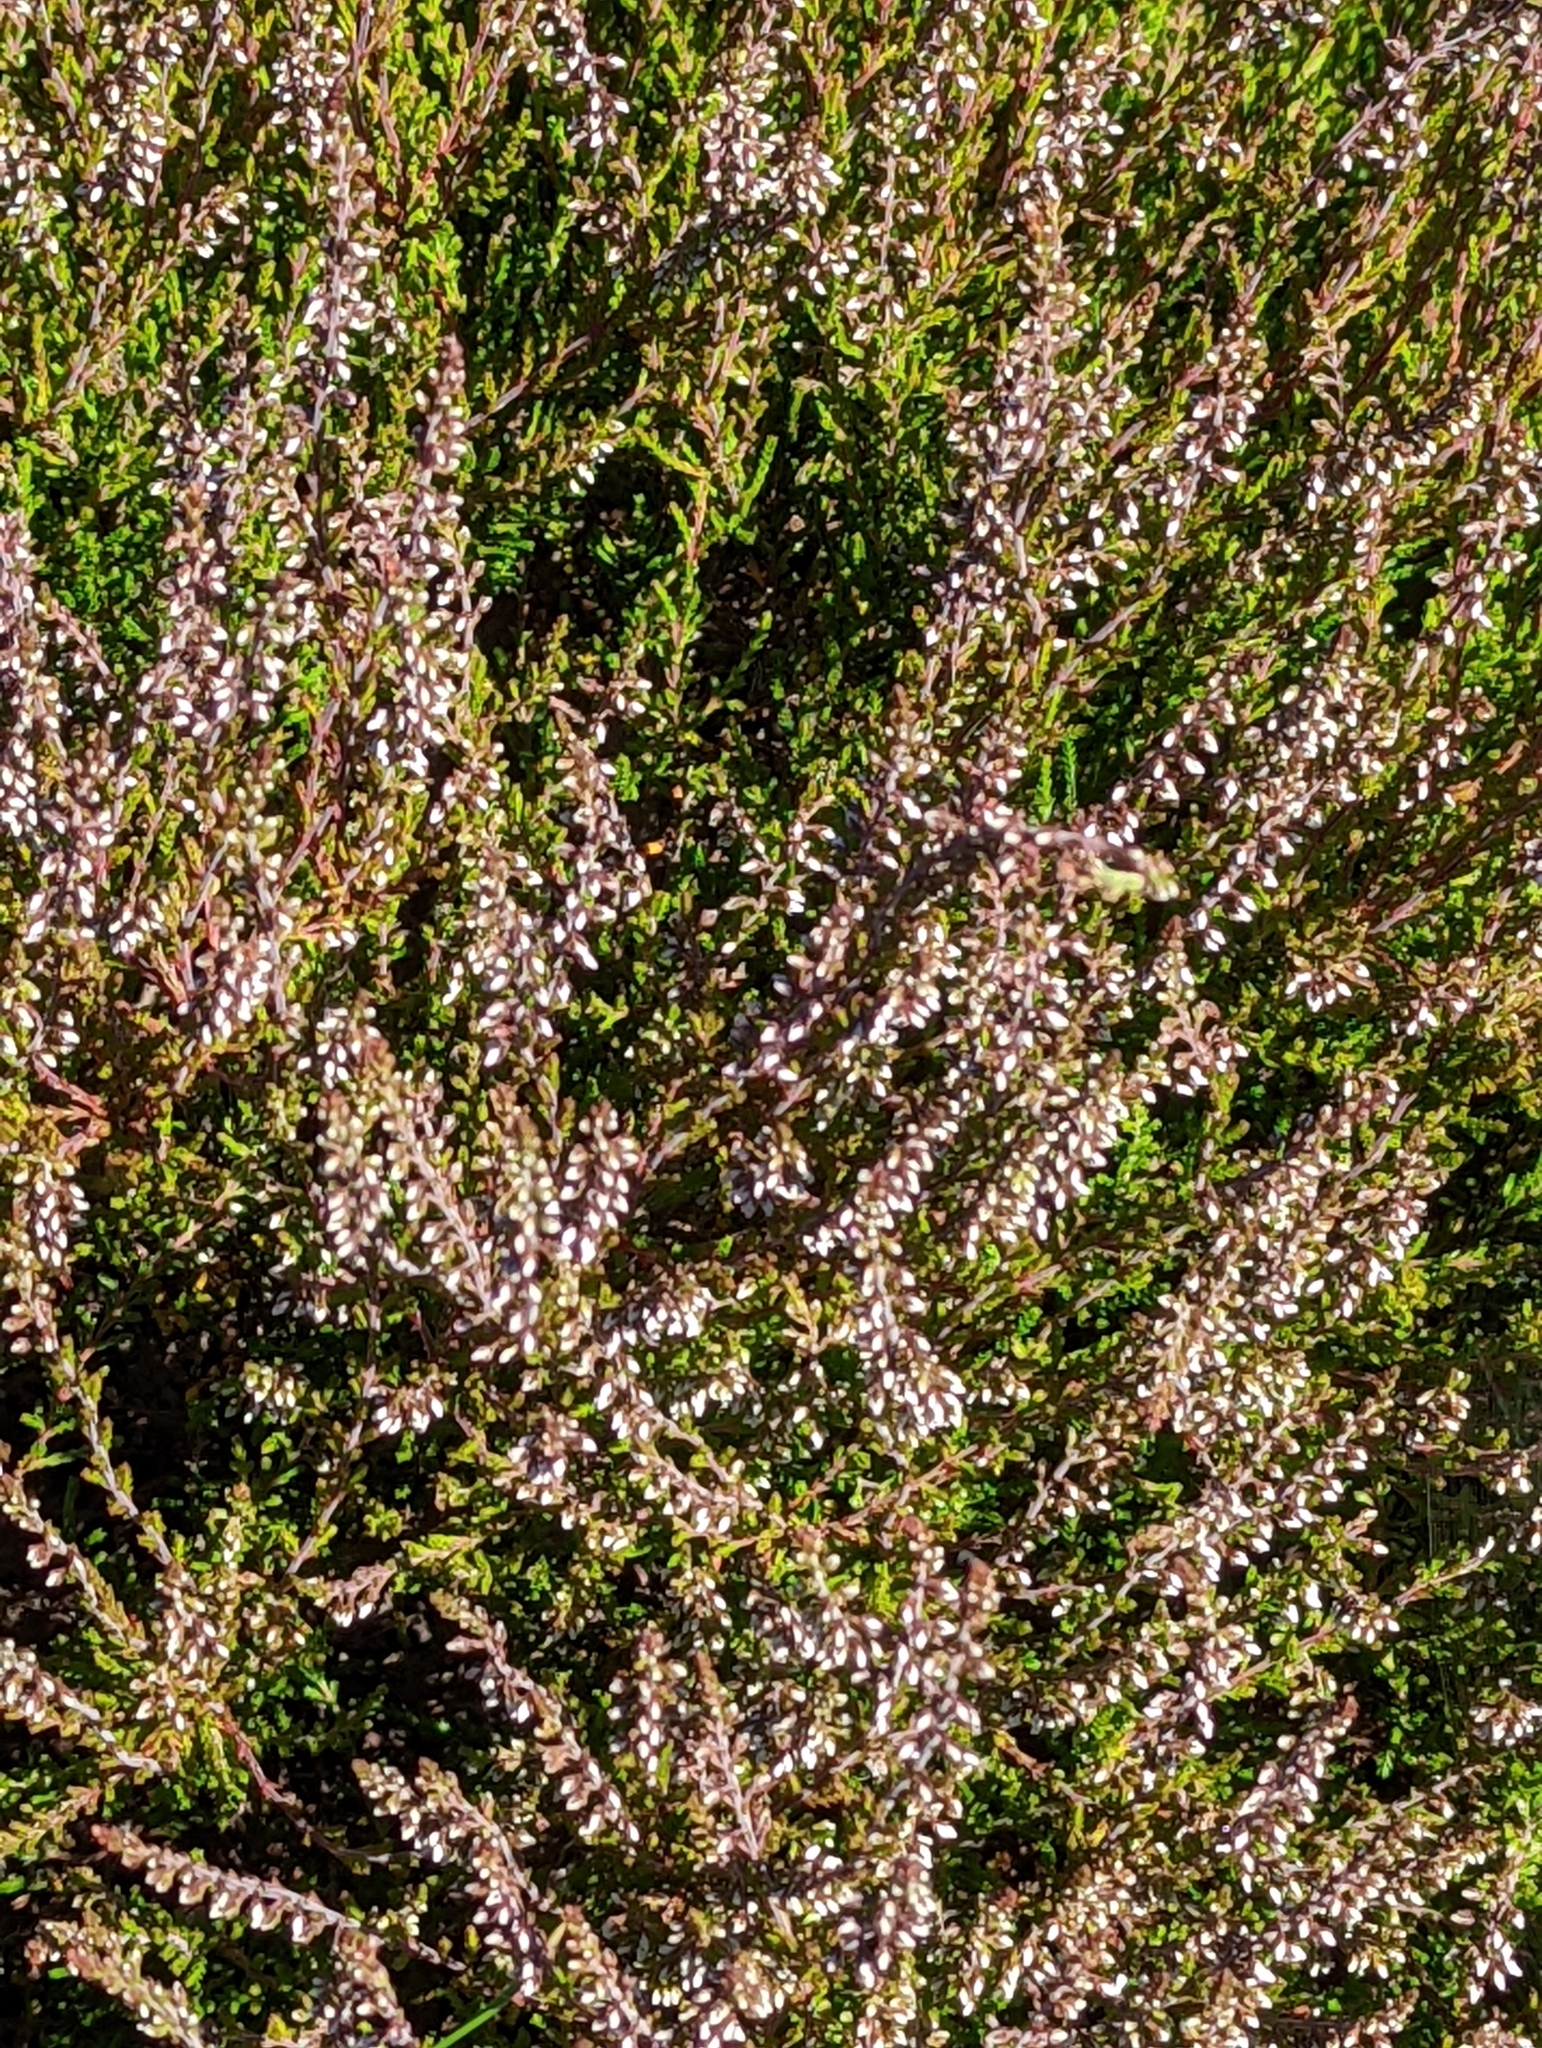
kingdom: Plantae
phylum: Tracheophyta
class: Magnoliopsida
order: Ericales
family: Ericaceae
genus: Calluna
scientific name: Calluna vulgaris
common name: Heather
